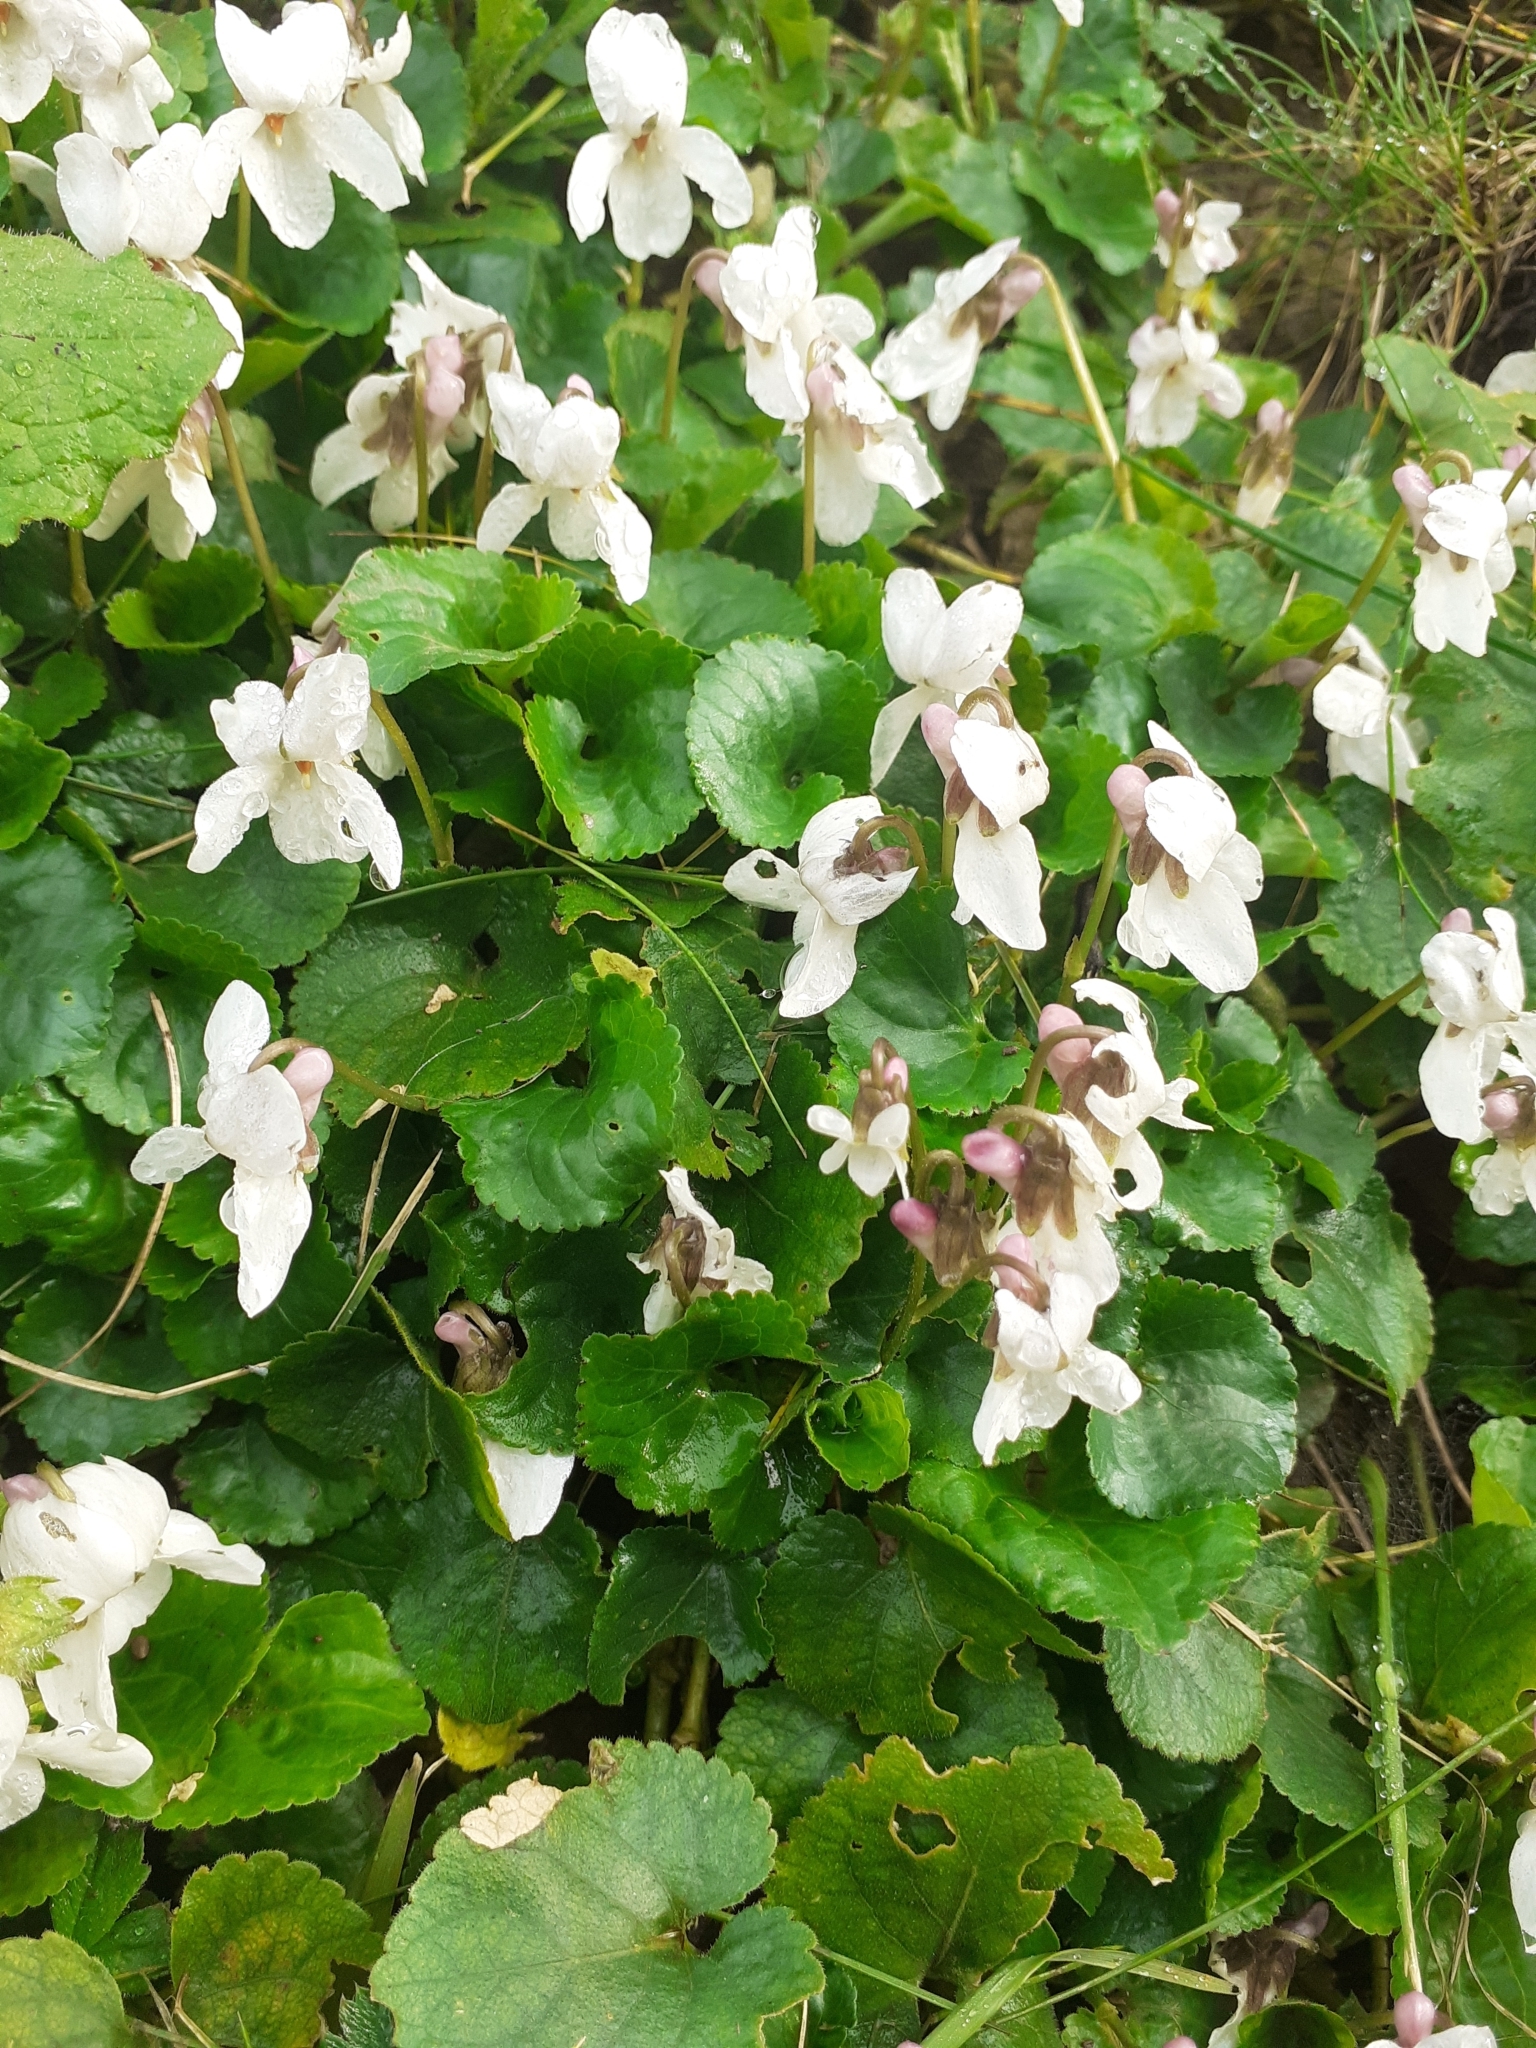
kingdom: Plantae
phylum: Tracheophyta
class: Magnoliopsida
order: Malpighiales
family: Violaceae
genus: Viola
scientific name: Viola odorata
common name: Sweet violet
